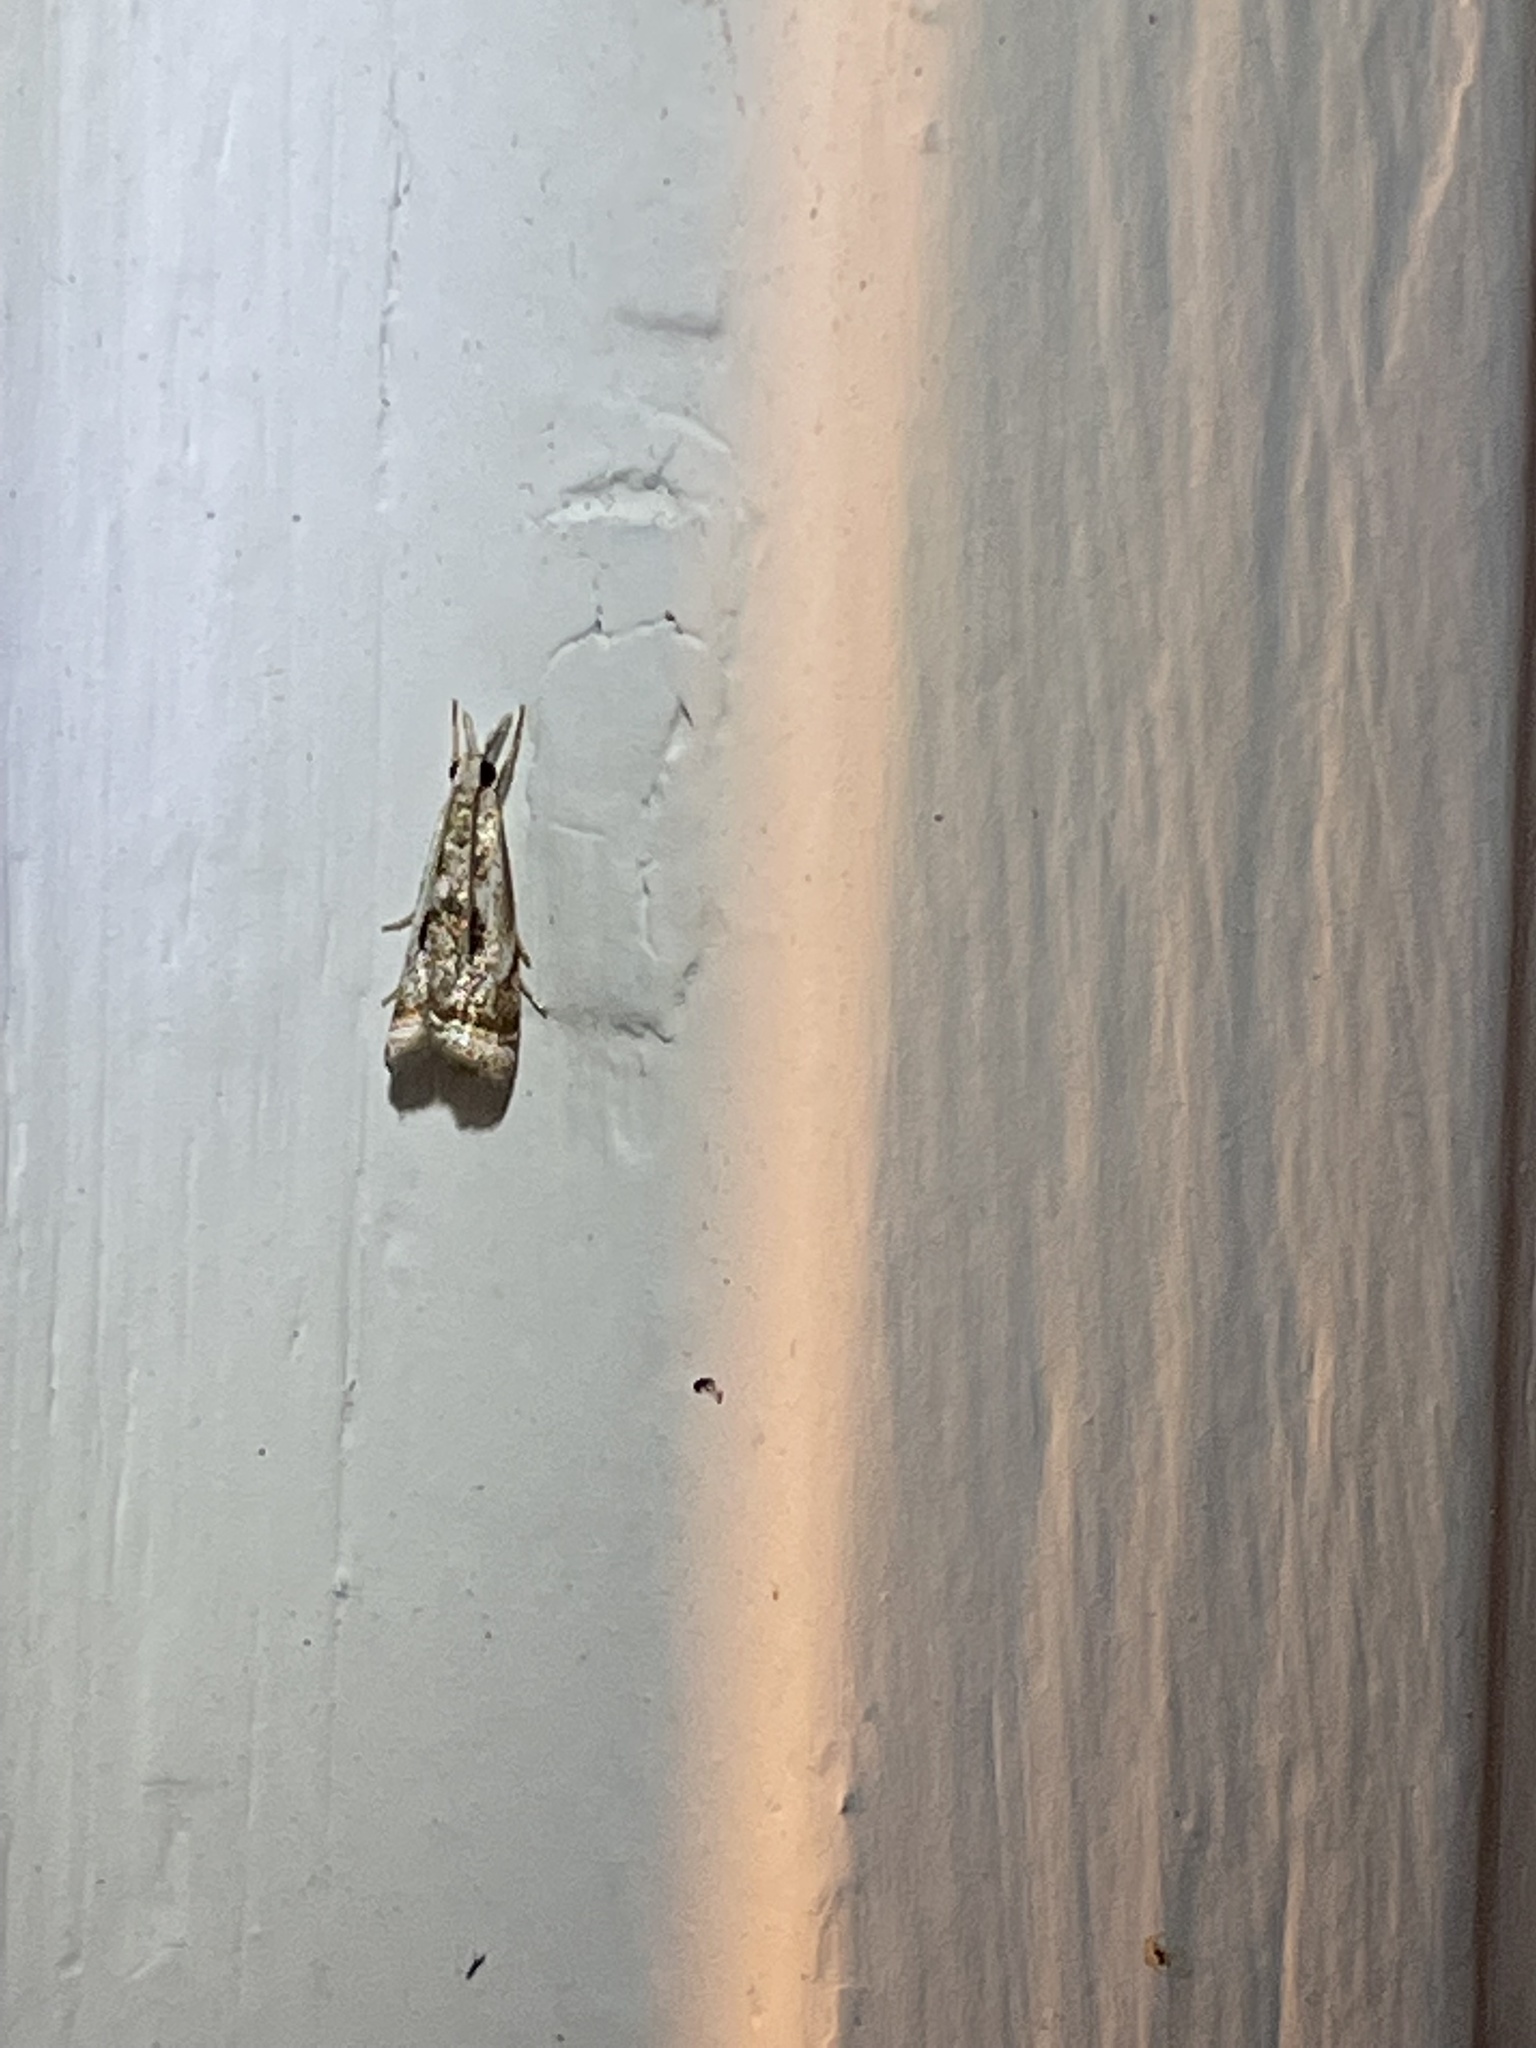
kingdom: Animalia
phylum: Arthropoda
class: Insecta
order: Lepidoptera
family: Crambidae
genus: Microcrambus
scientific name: Microcrambus elegans
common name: Elegant grass-veneer
